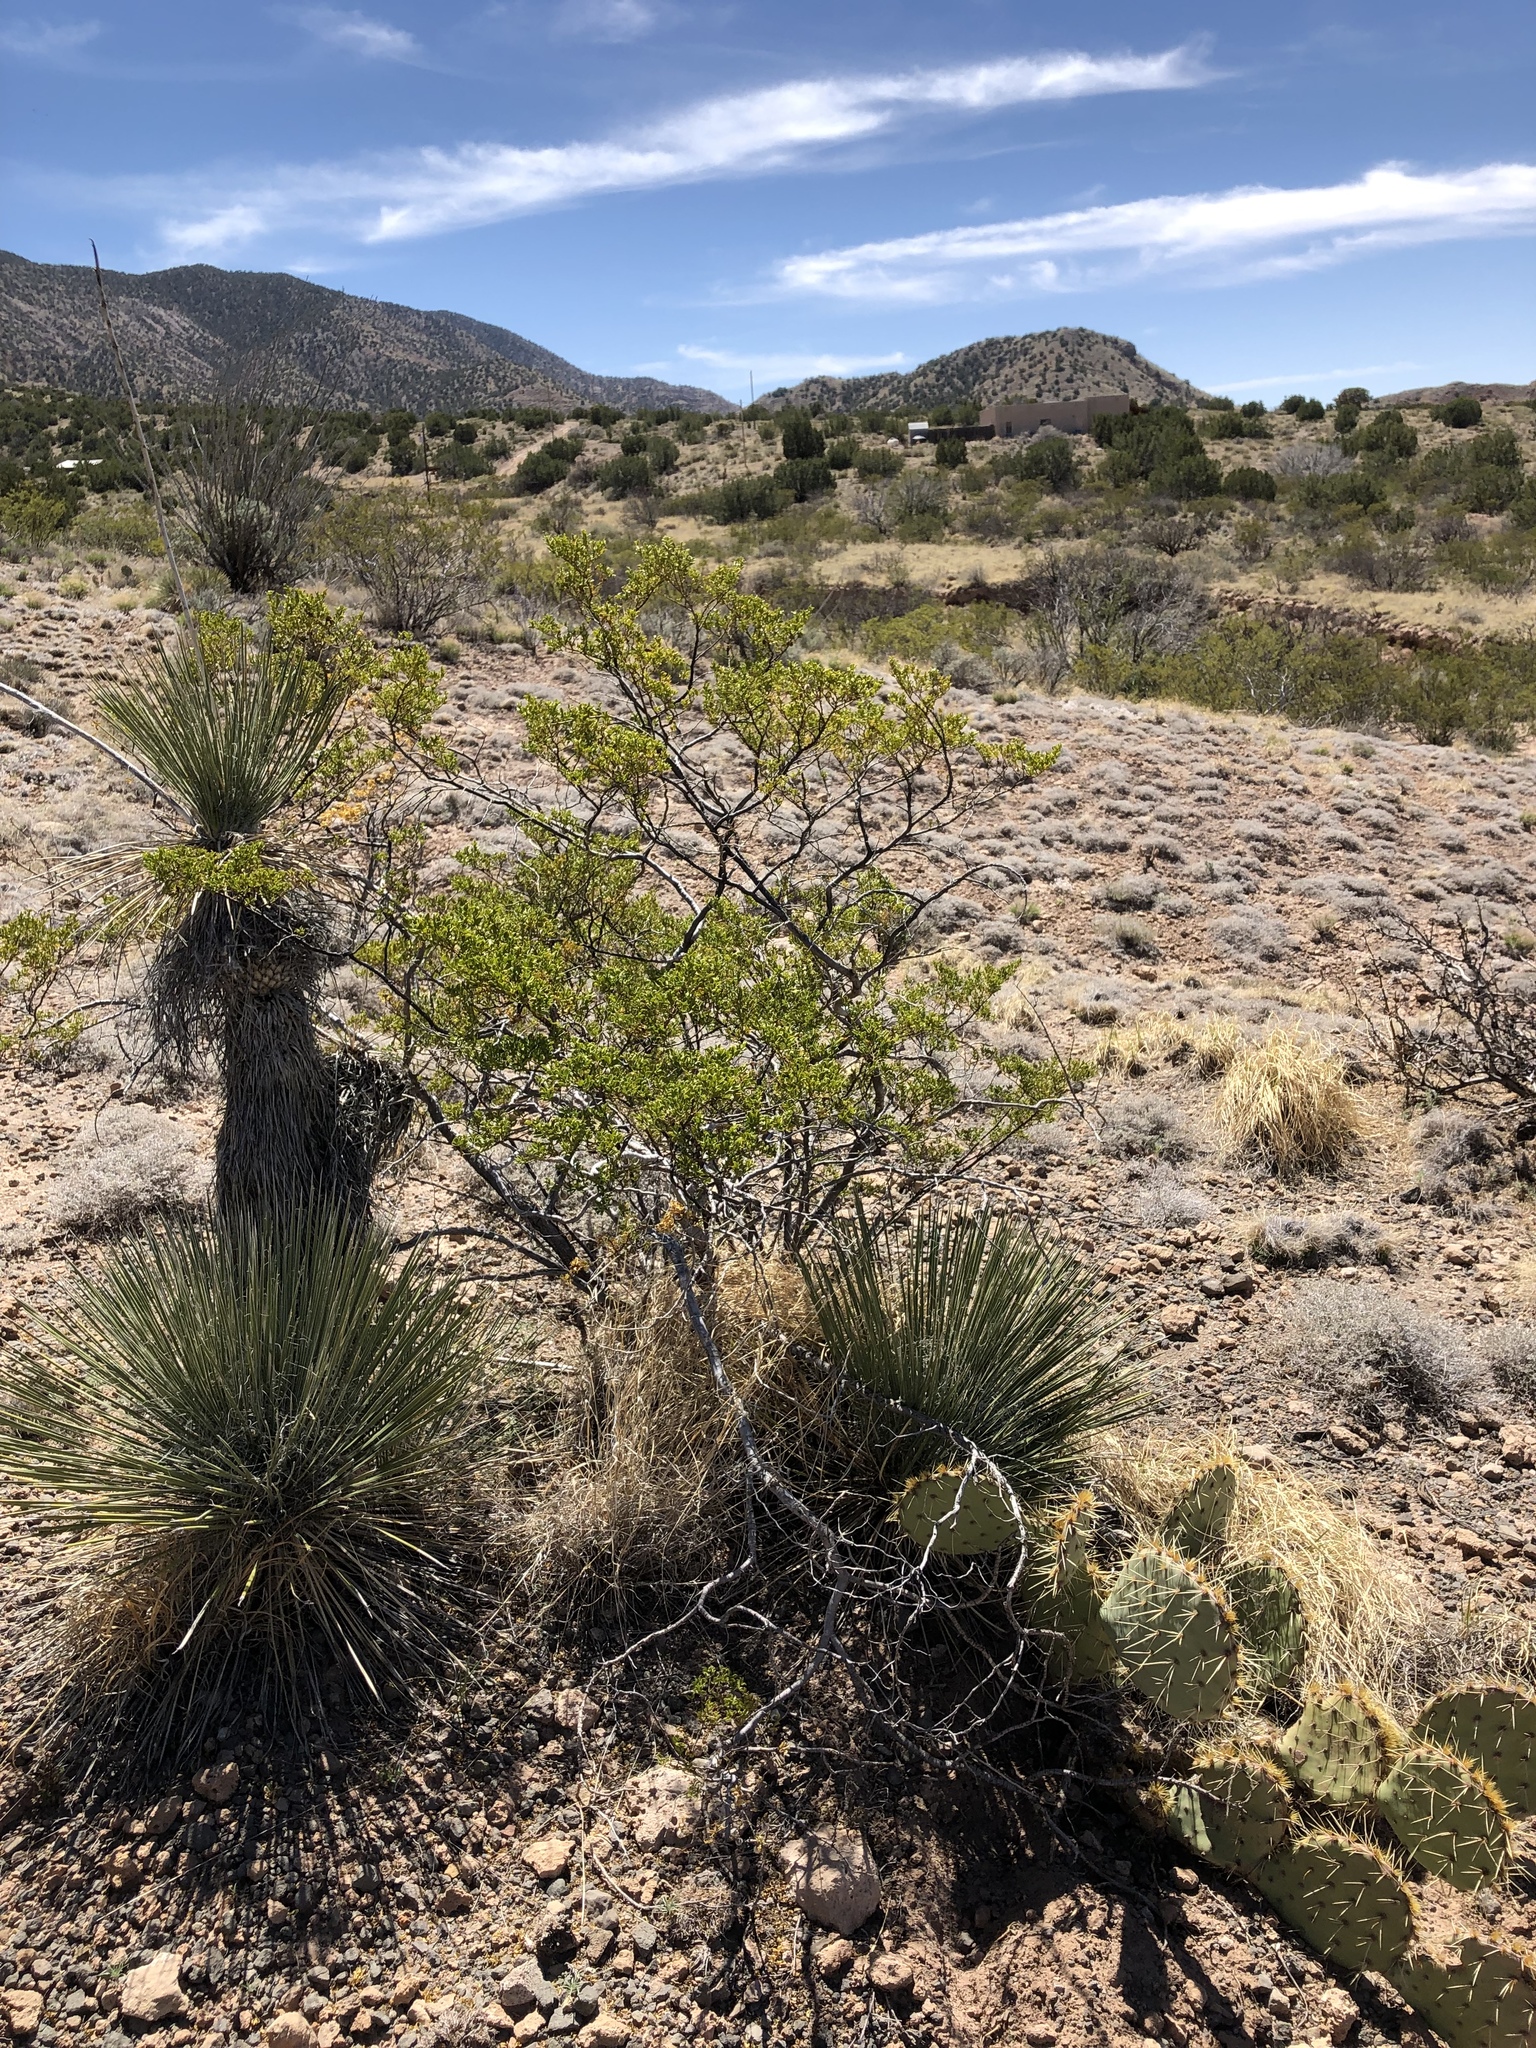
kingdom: Plantae
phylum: Tracheophyta
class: Magnoliopsida
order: Zygophyllales
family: Zygophyllaceae
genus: Larrea
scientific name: Larrea tridentata
